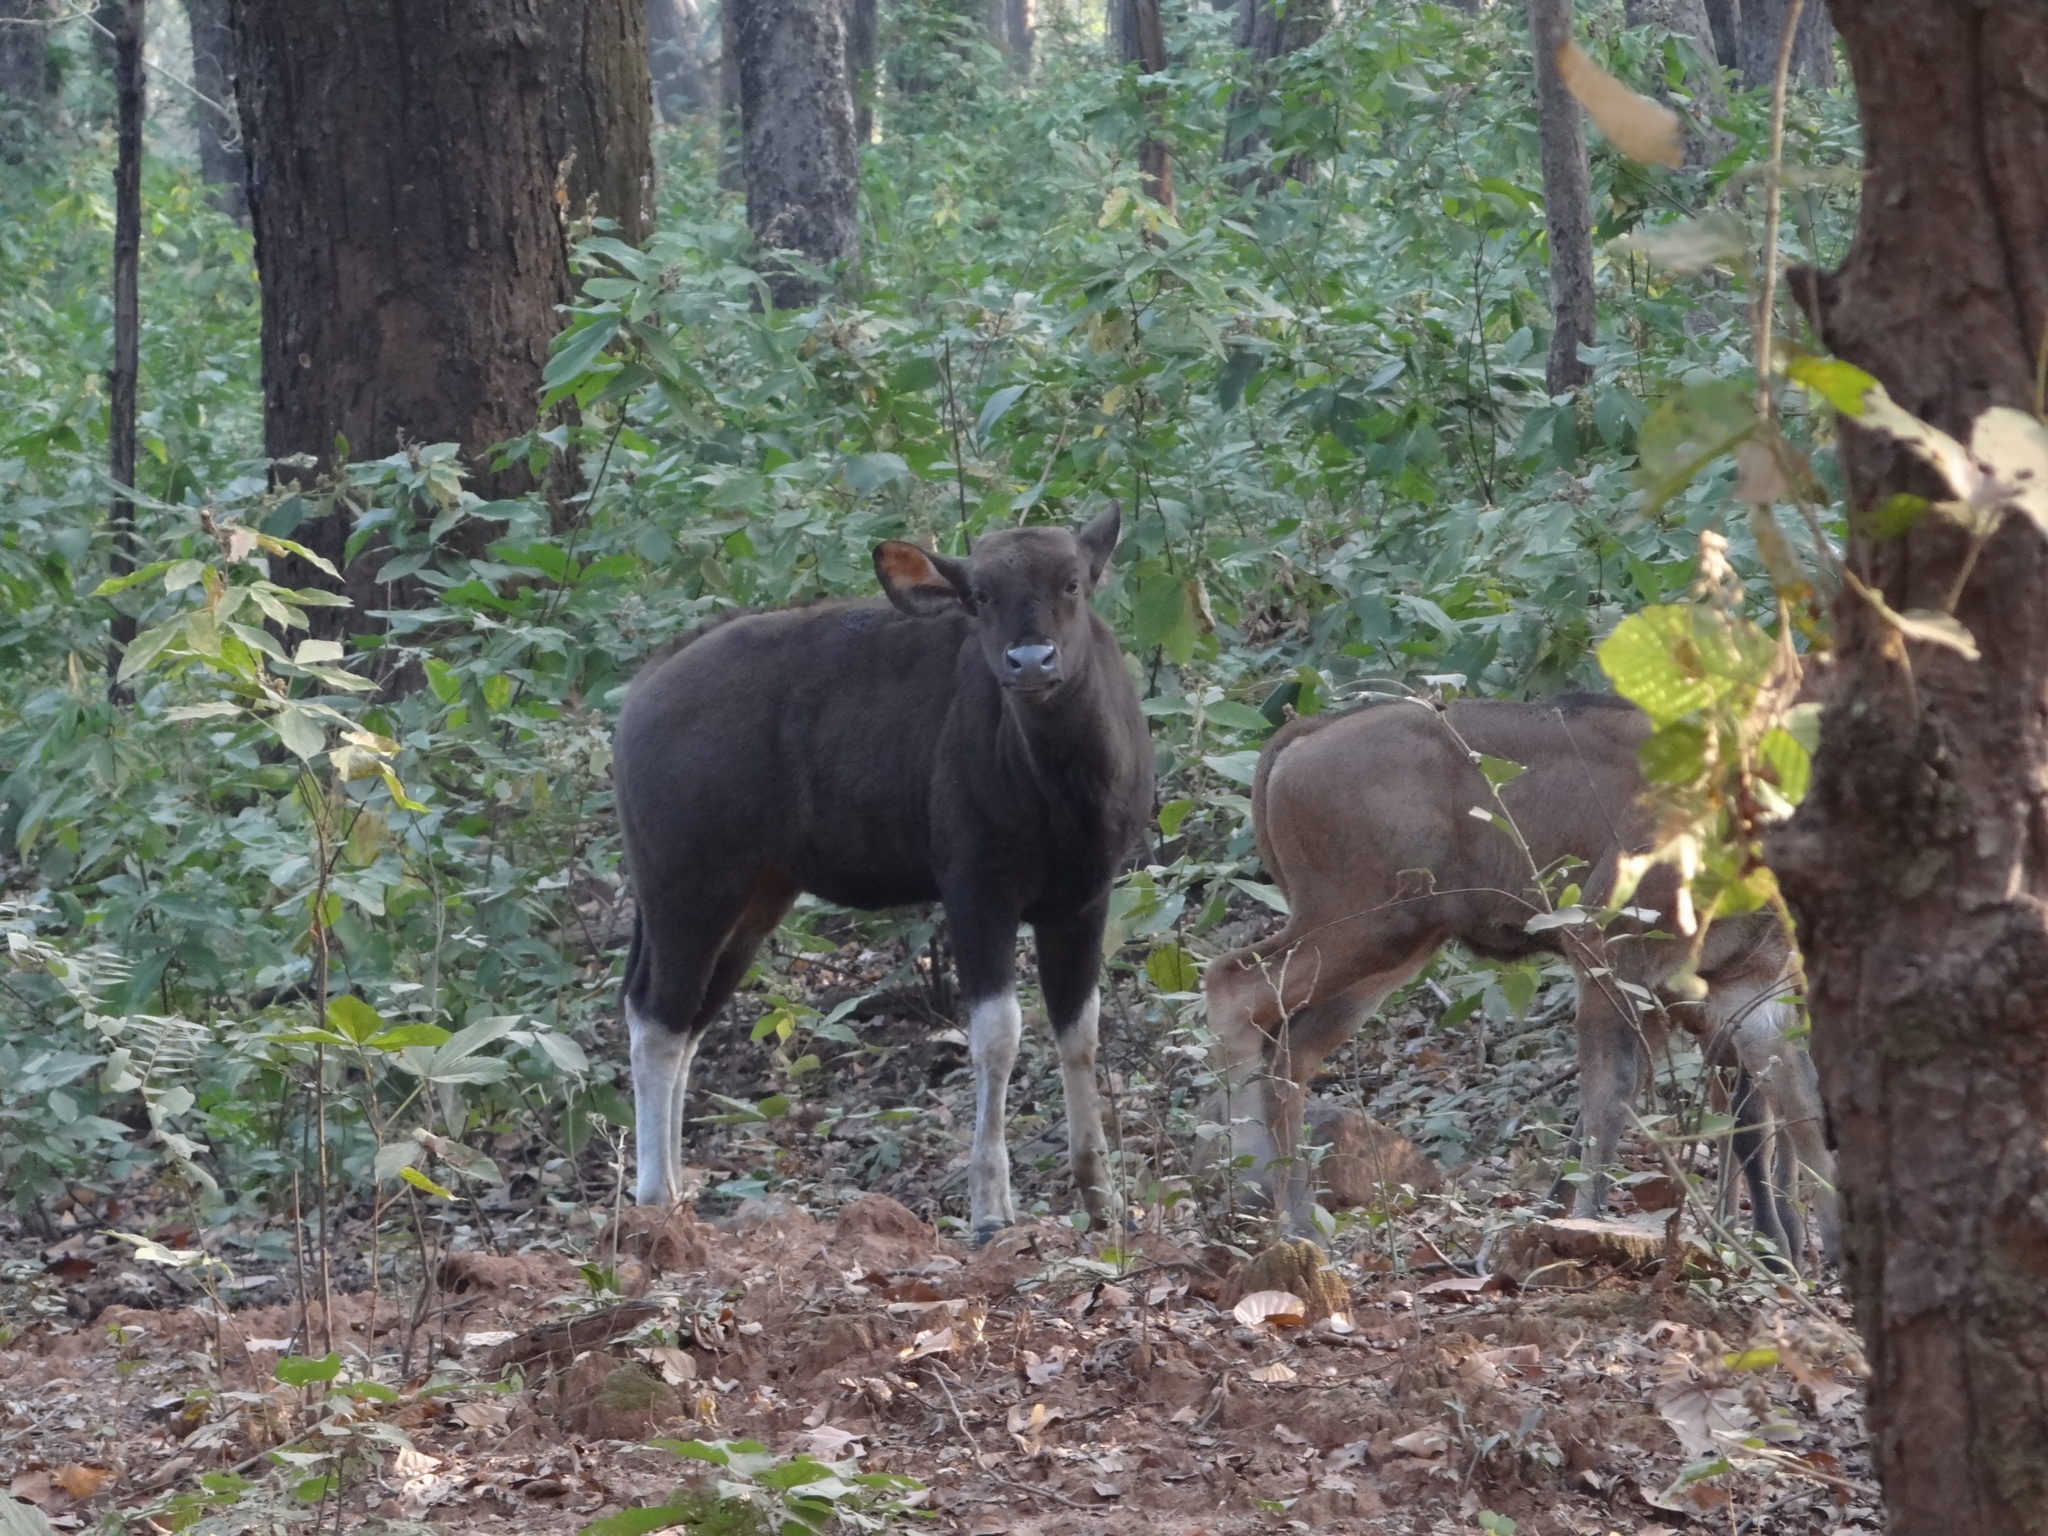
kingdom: Animalia
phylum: Chordata
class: Mammalia
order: Artiodactyla
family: Bovidae
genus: Bos
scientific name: Bos frontalis
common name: Gaur
